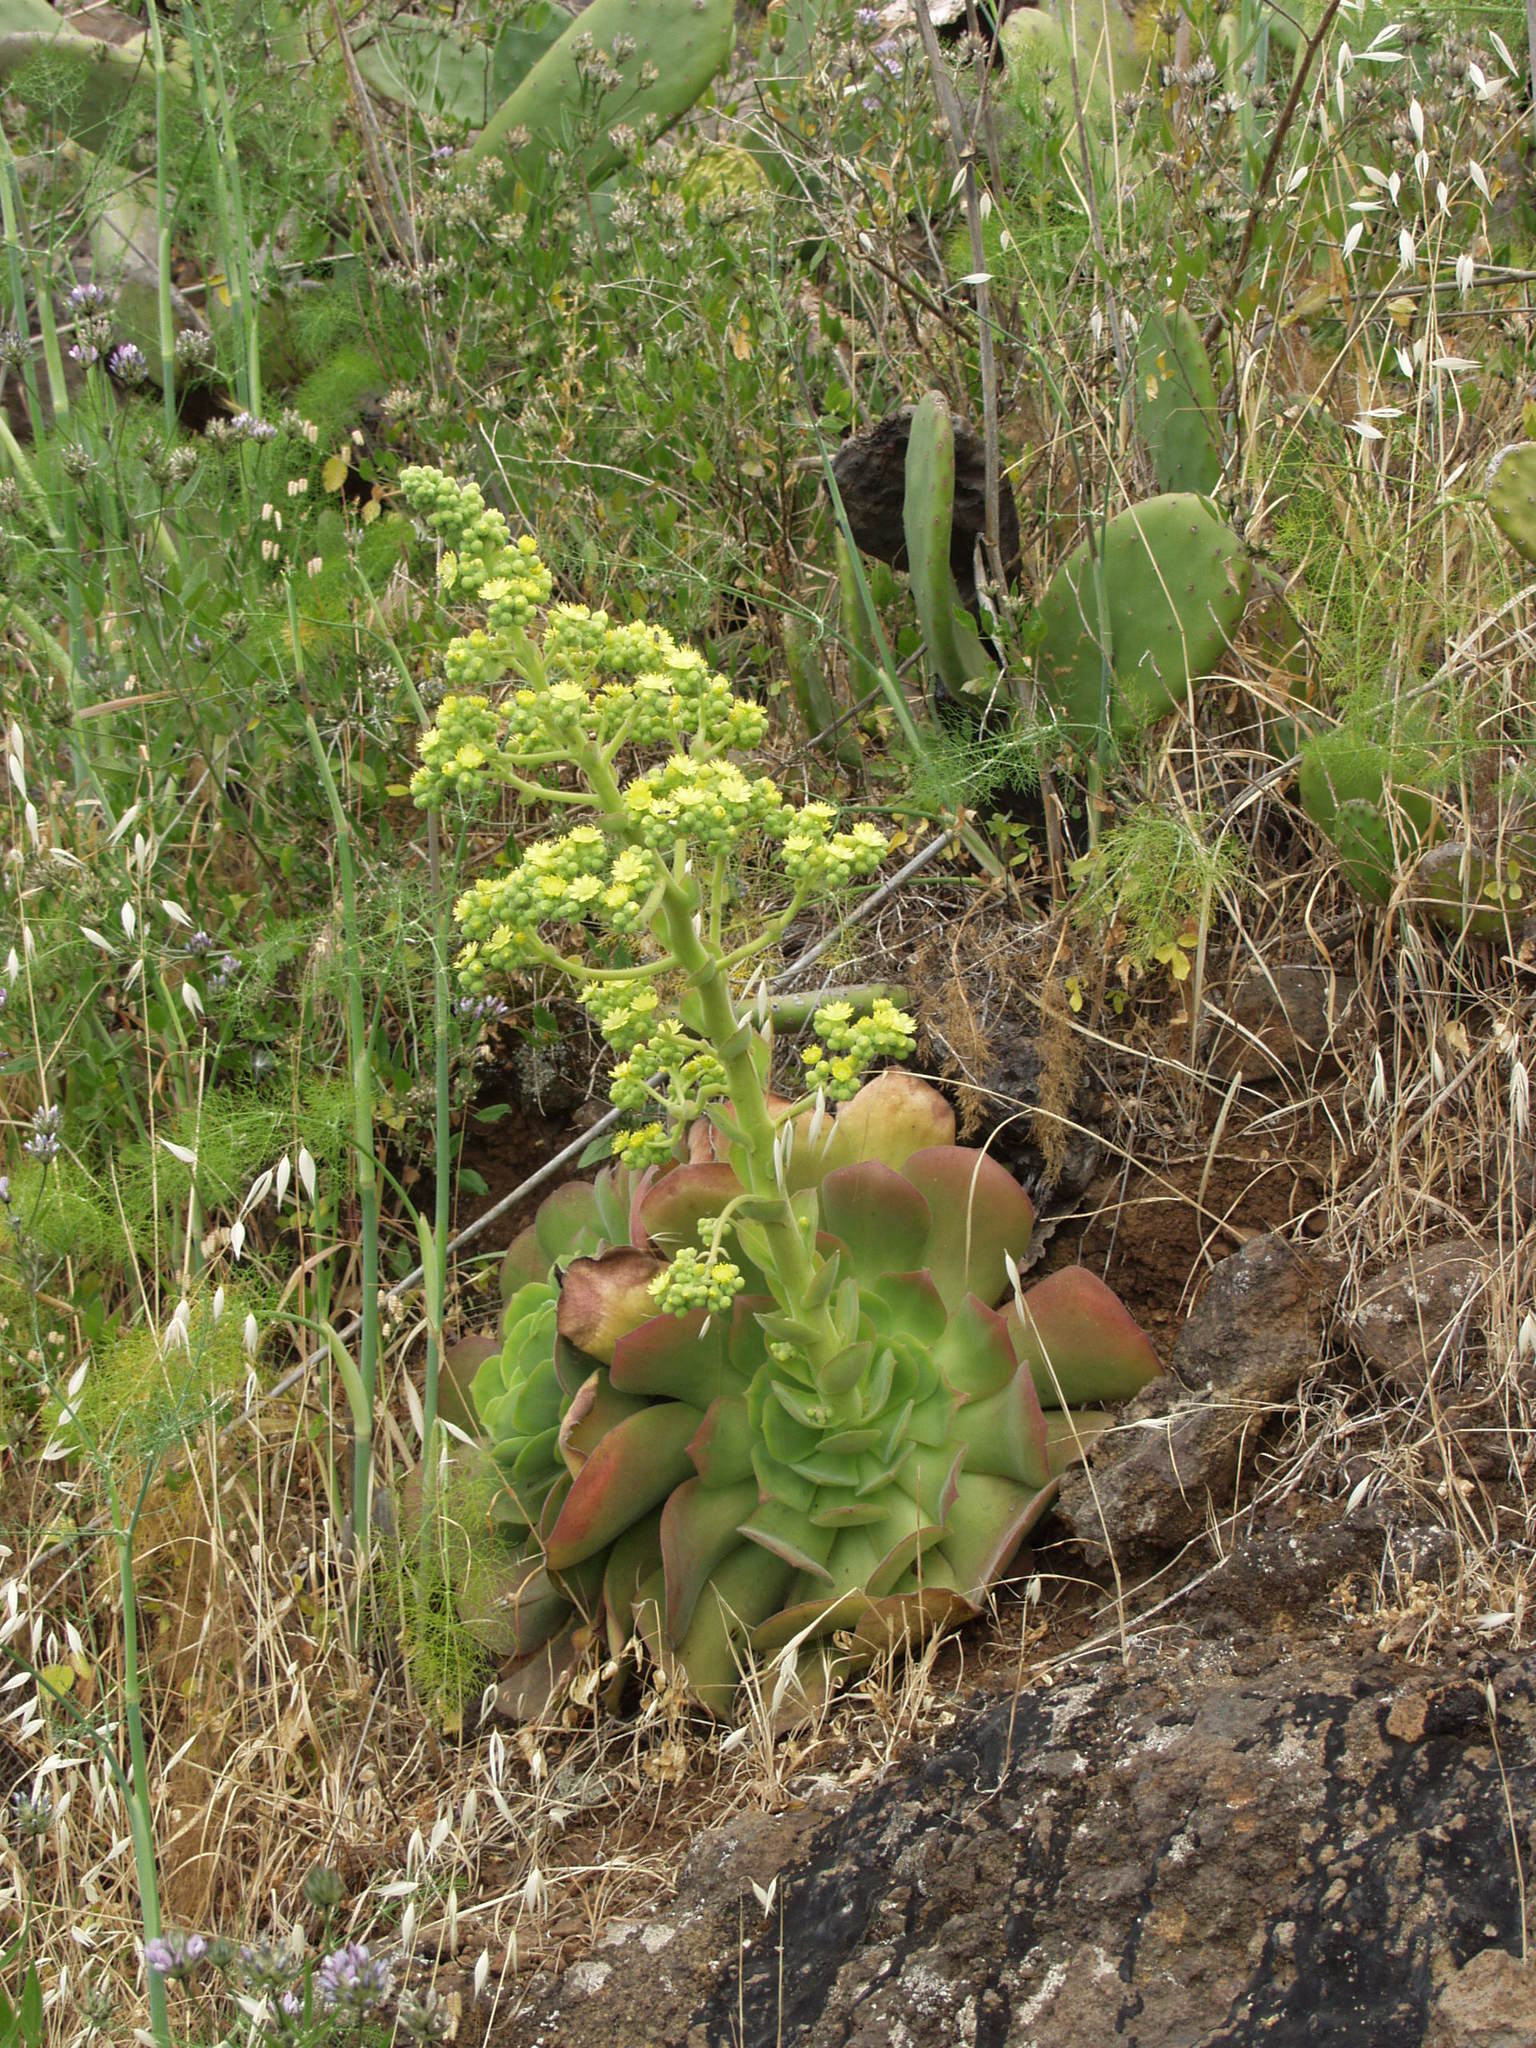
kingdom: Plantae
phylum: Tracheophyta
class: Magnoliopsida
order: Saxifragales
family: Crassulaceae
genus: Aeonium
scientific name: Aeonium canariense
